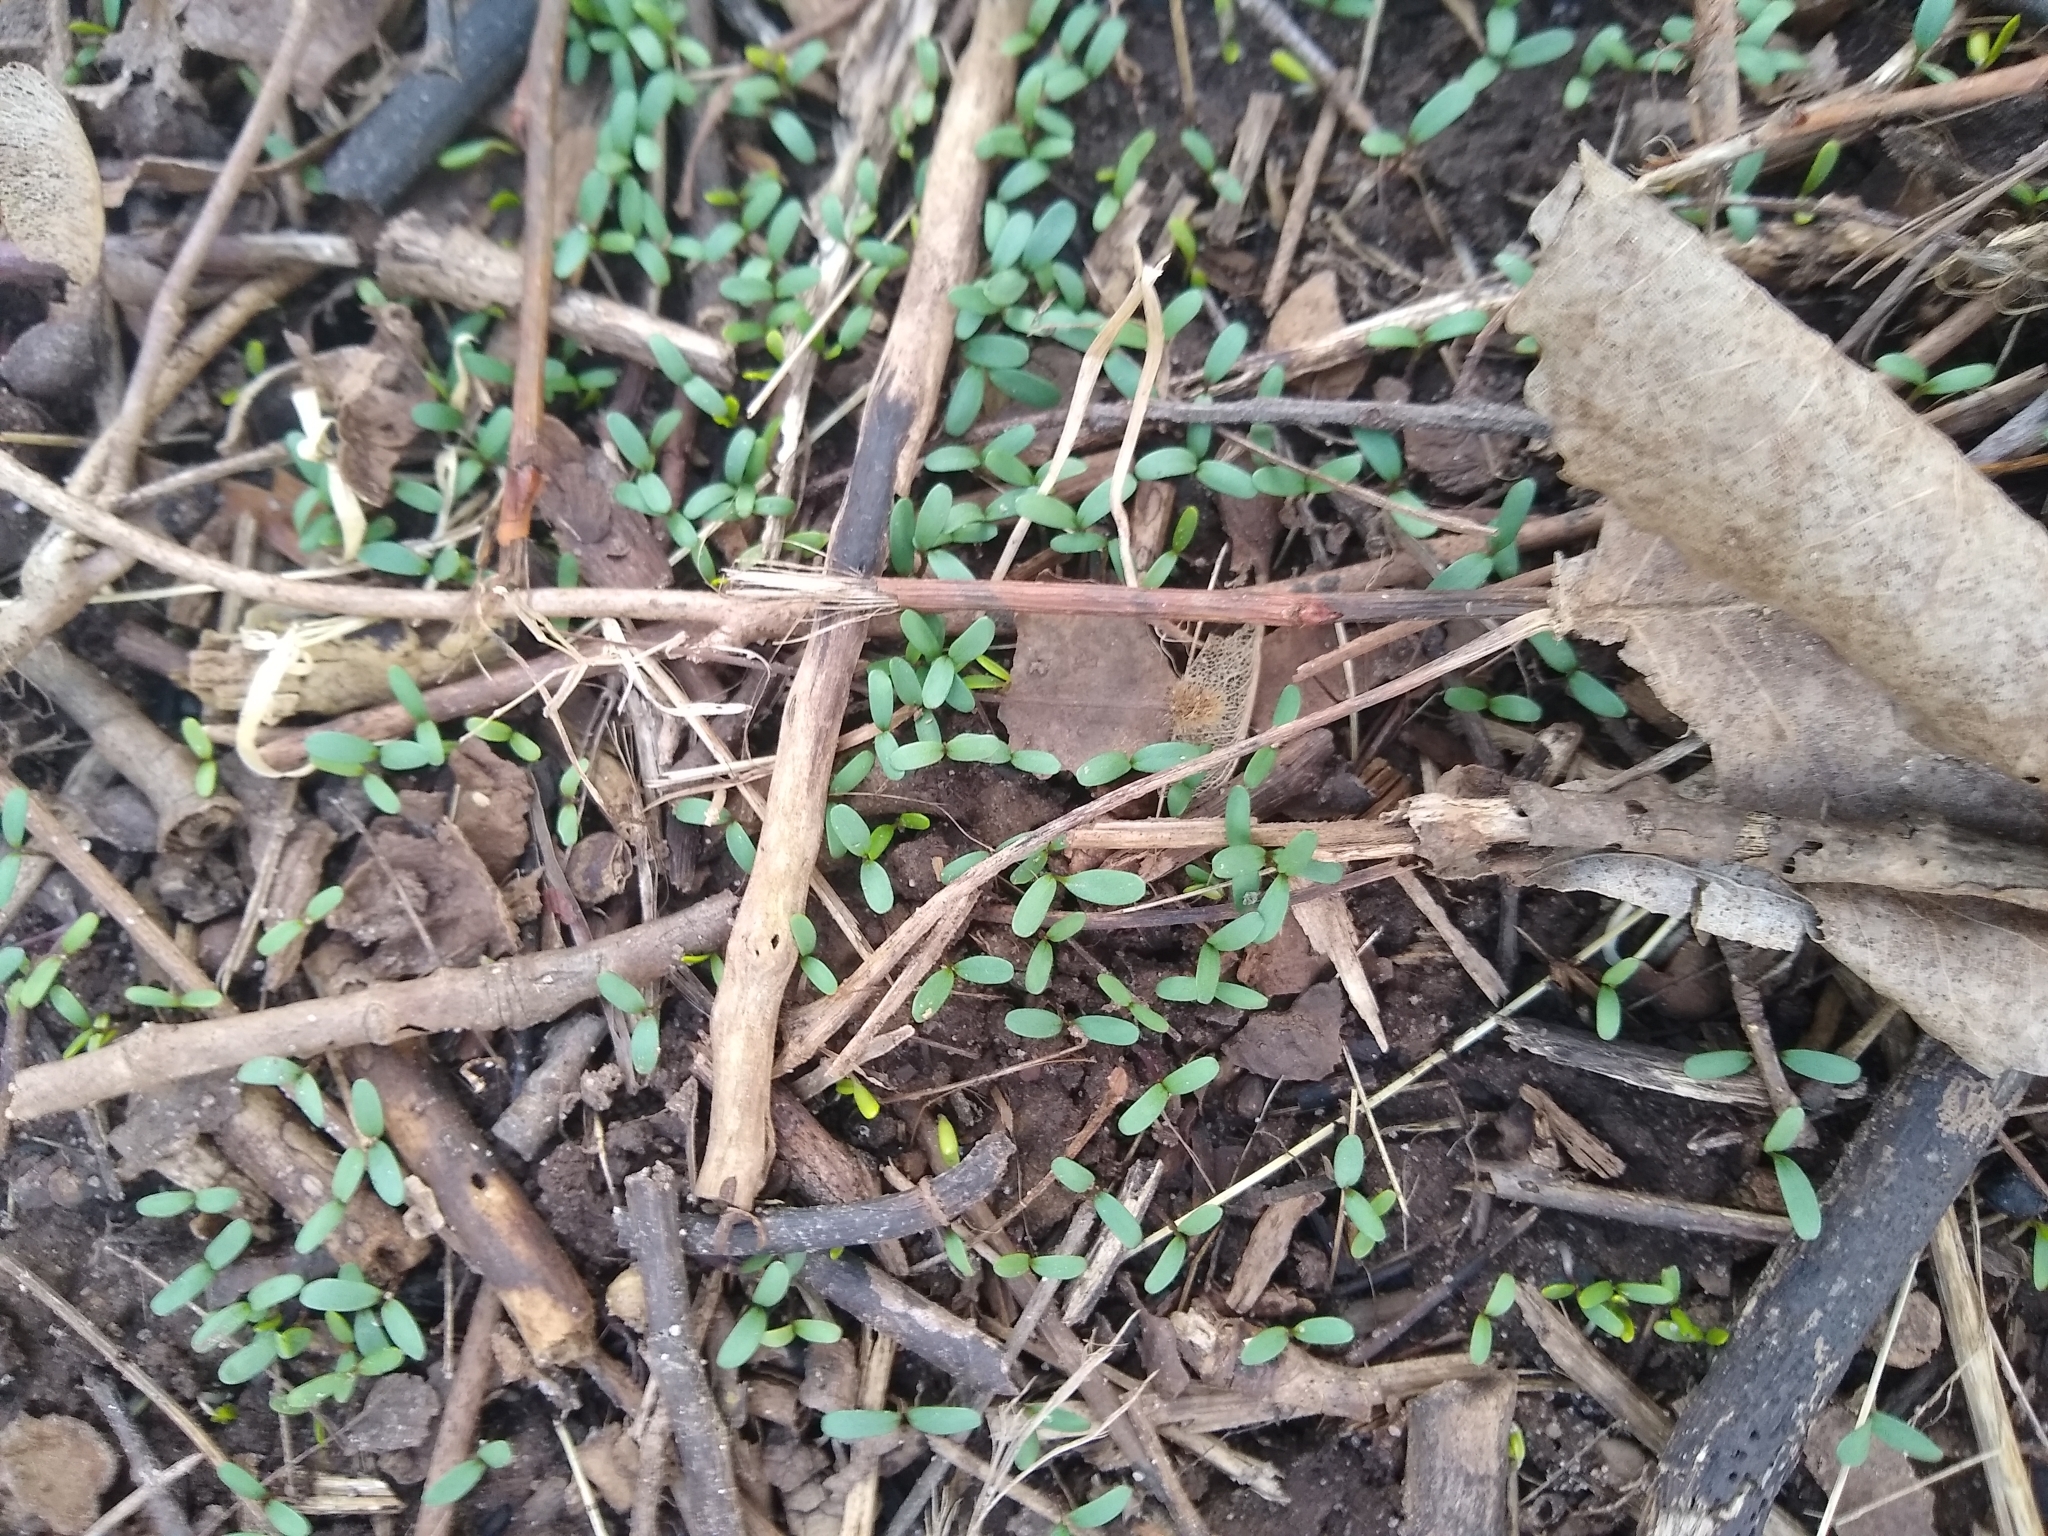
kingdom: Plantae
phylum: Tracheophyta
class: Magnoliopsida
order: Brassicales
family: Brassicaceae
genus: Alliaria
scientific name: Alliaria petiolata
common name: Garlic mustard
